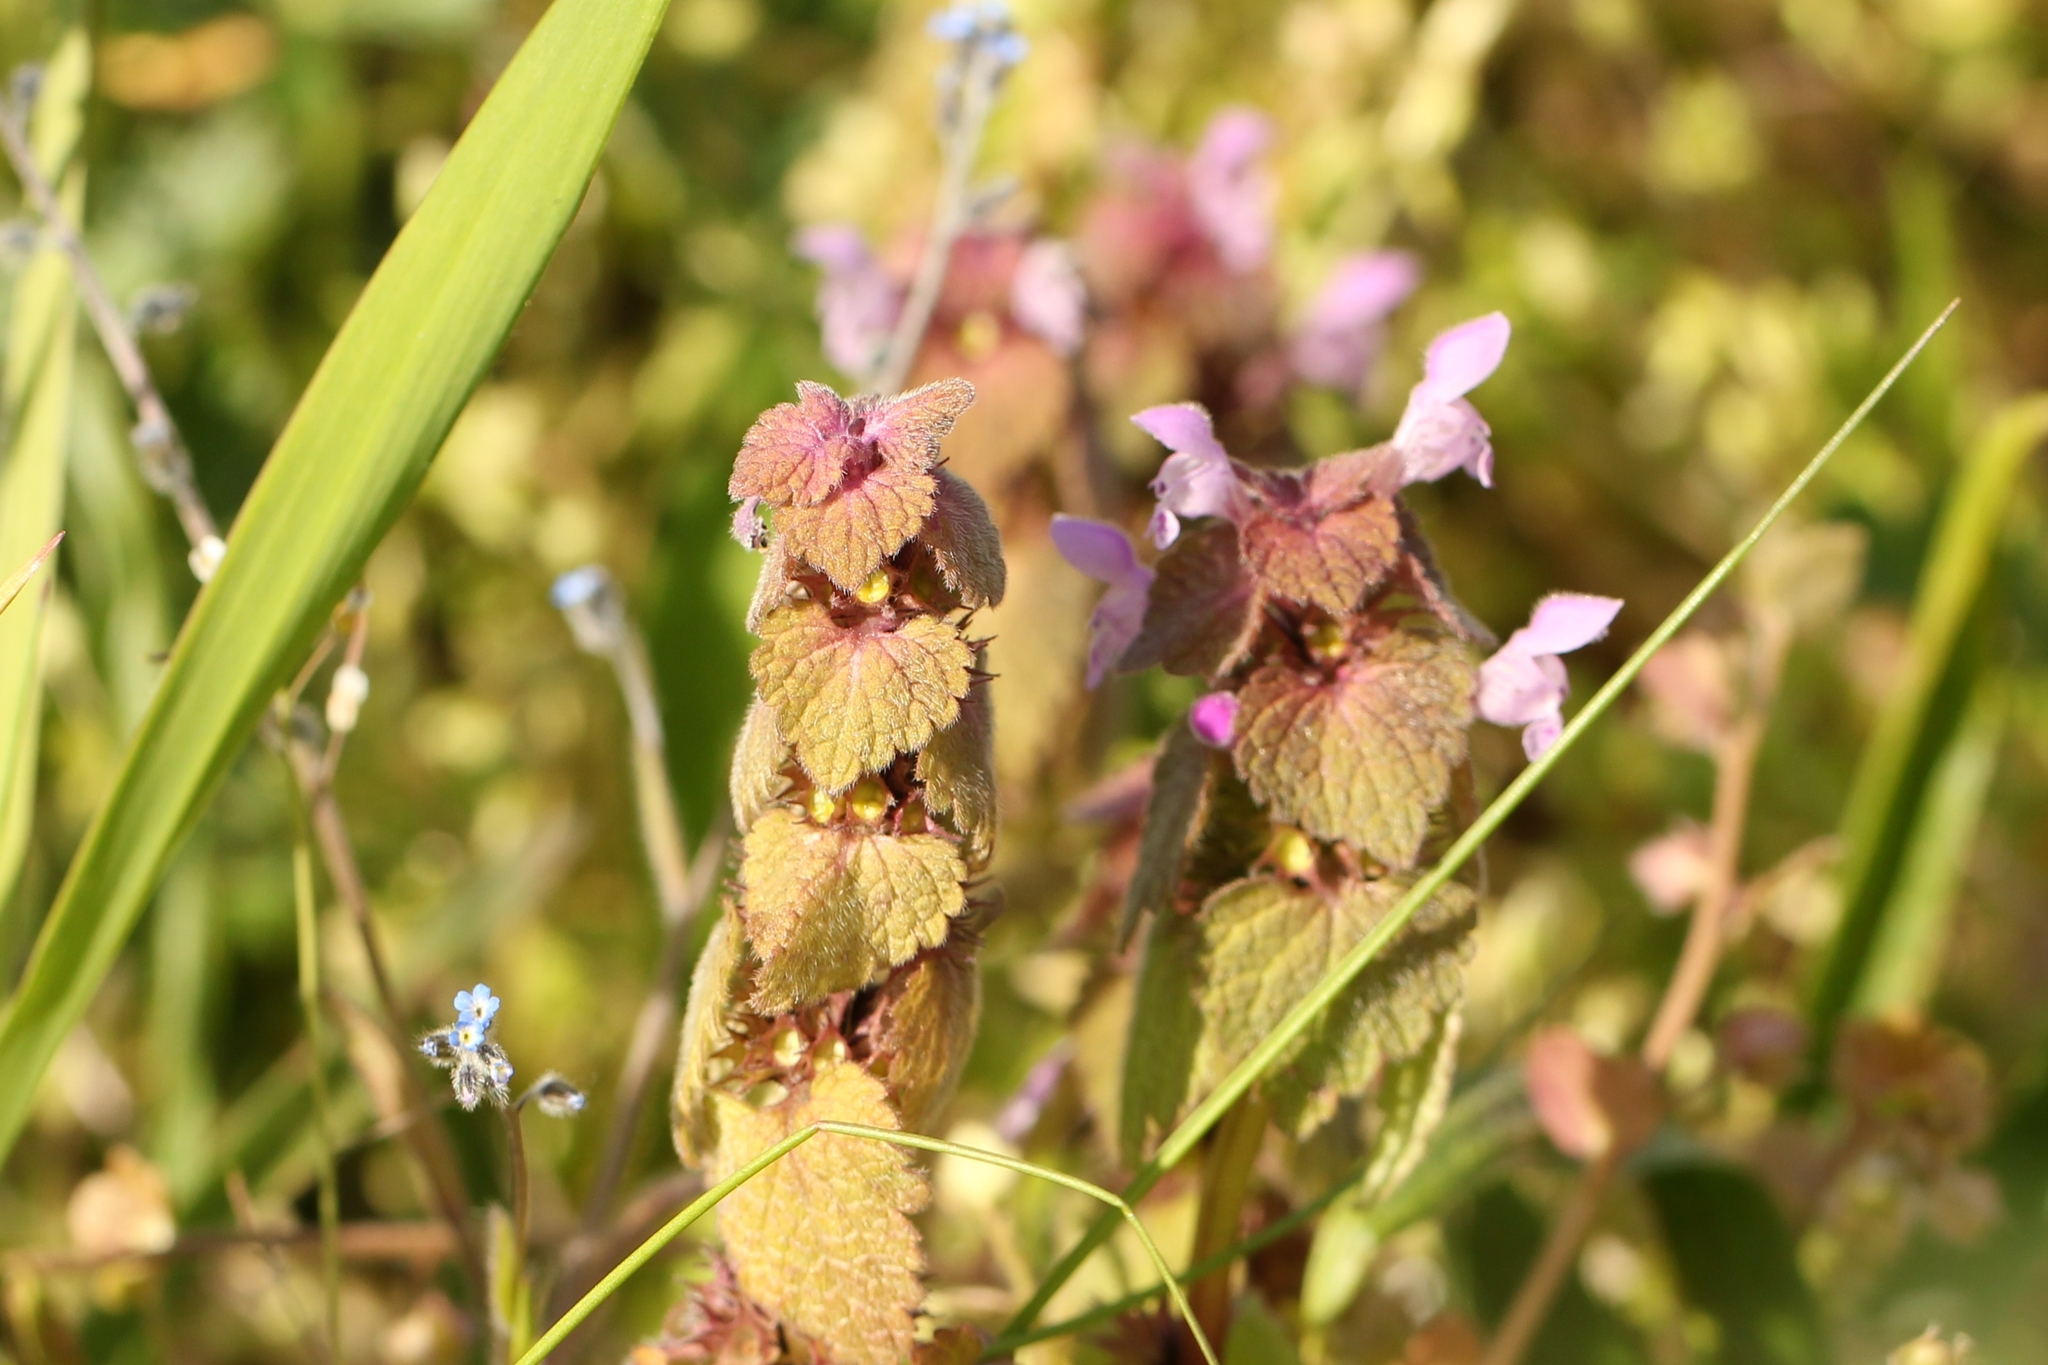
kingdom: Plantae
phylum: Tracheophyta
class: Magnoliopsida
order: Lamiales
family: Lamiaceae
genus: Lamium
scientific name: Lamium purpureum
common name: Red dead-nettle
